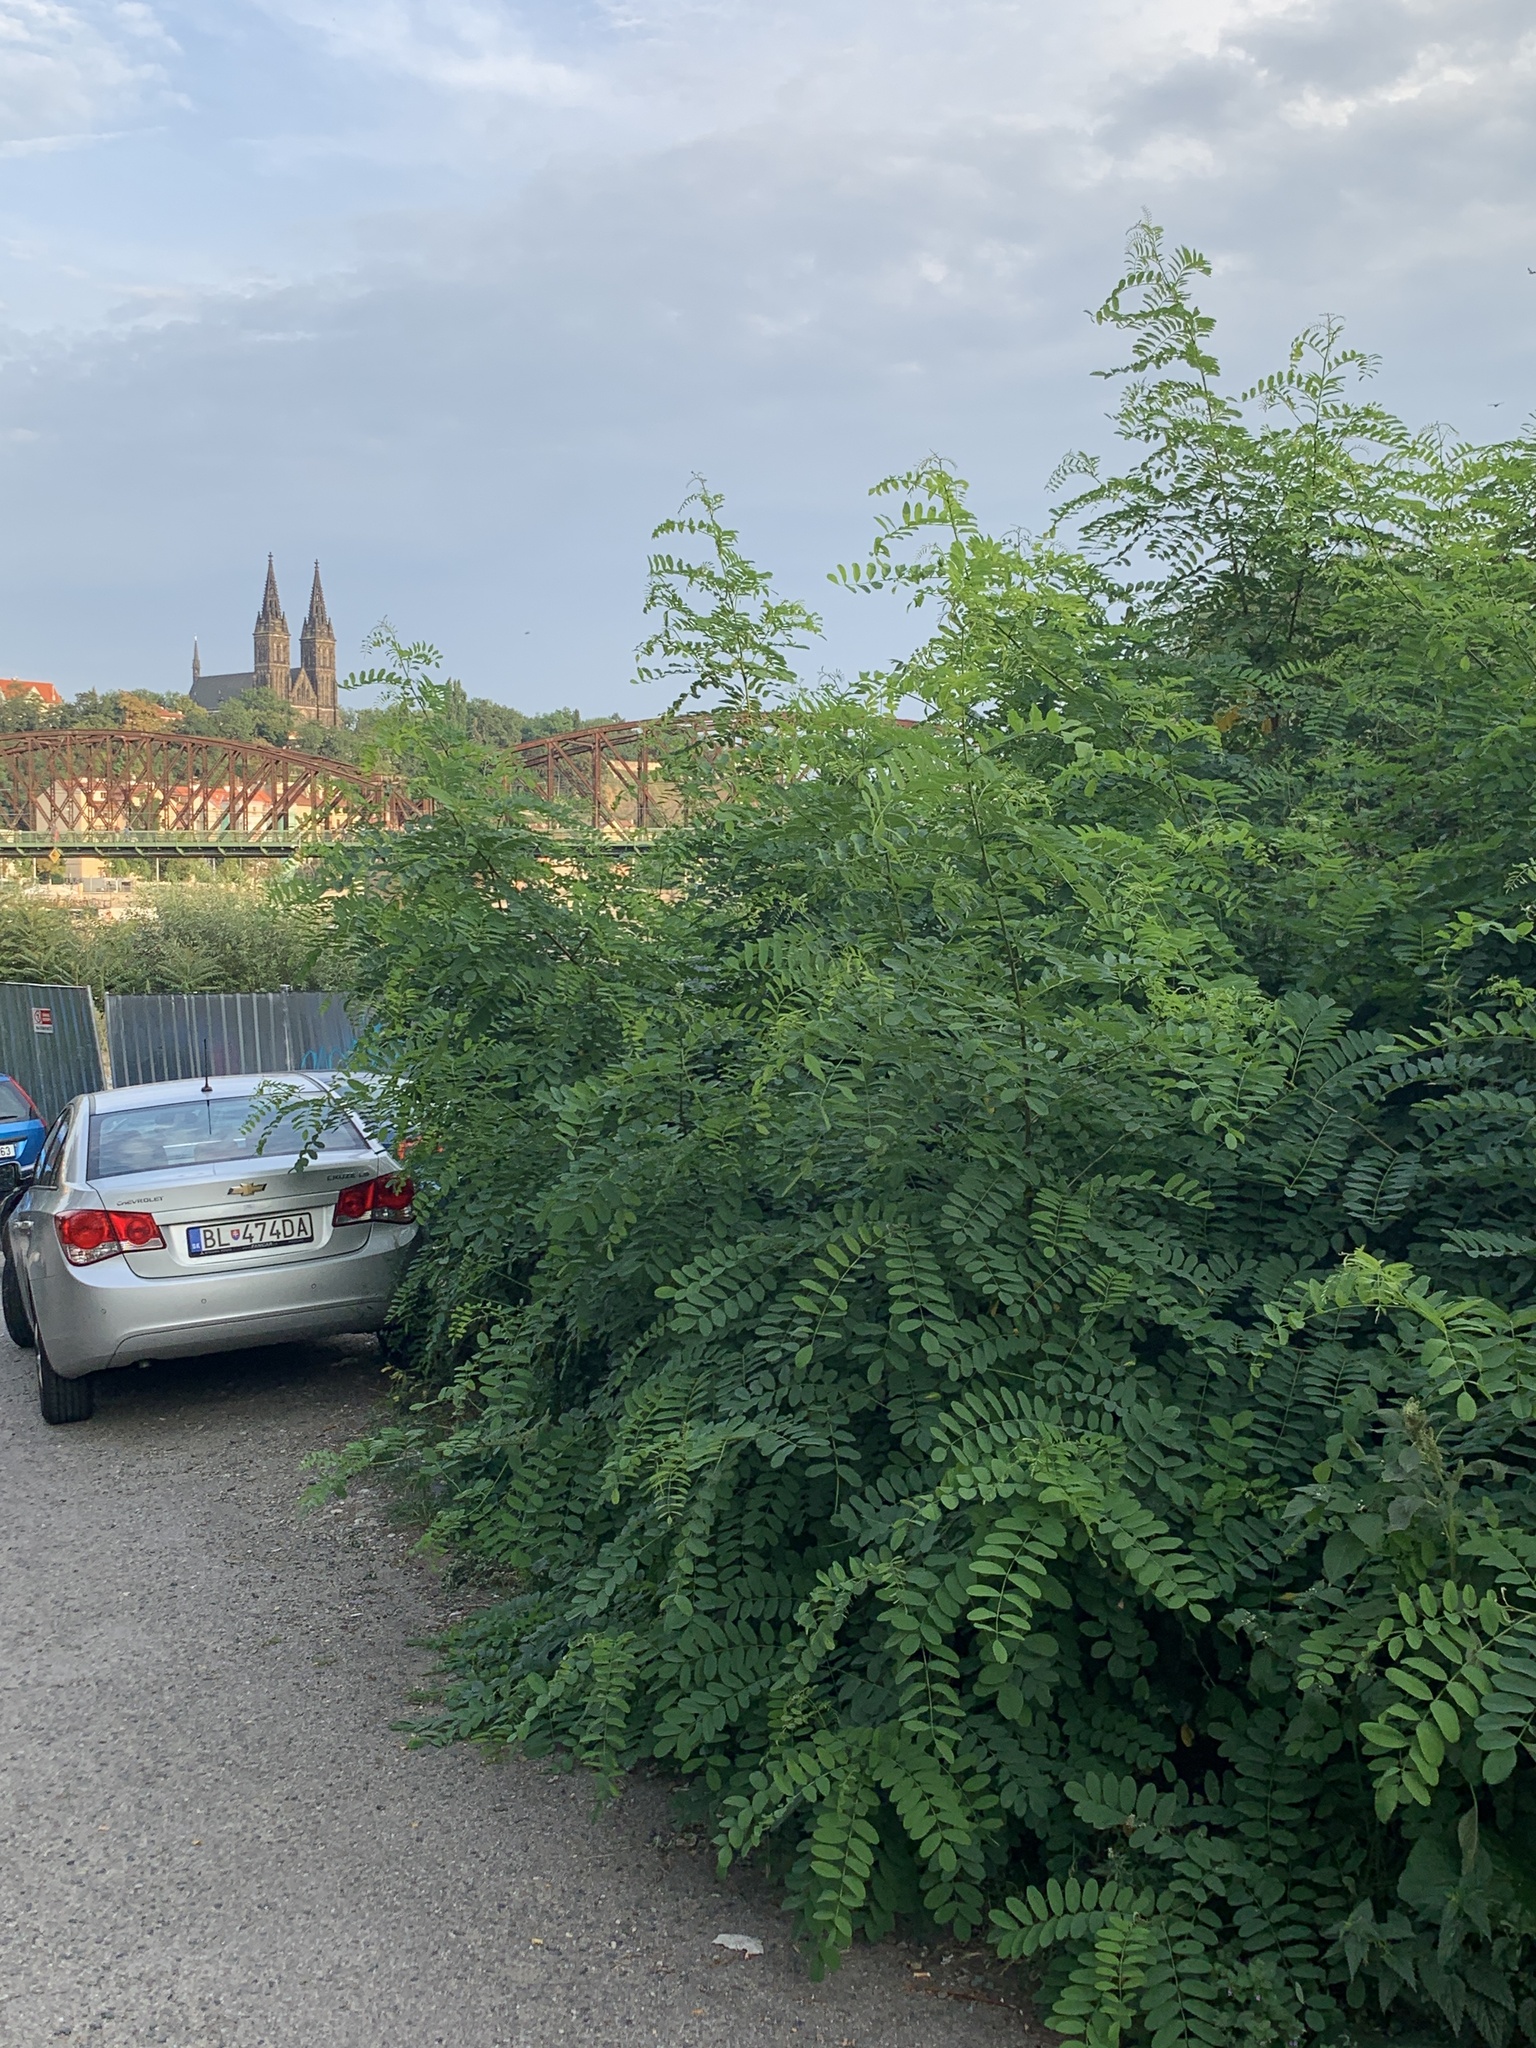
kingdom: Plantae
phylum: Tracheophyta
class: Magnoliopsida
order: Fabales
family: Fabaceae
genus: Robinia
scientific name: Robinia pseudoacacia
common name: Black locust
